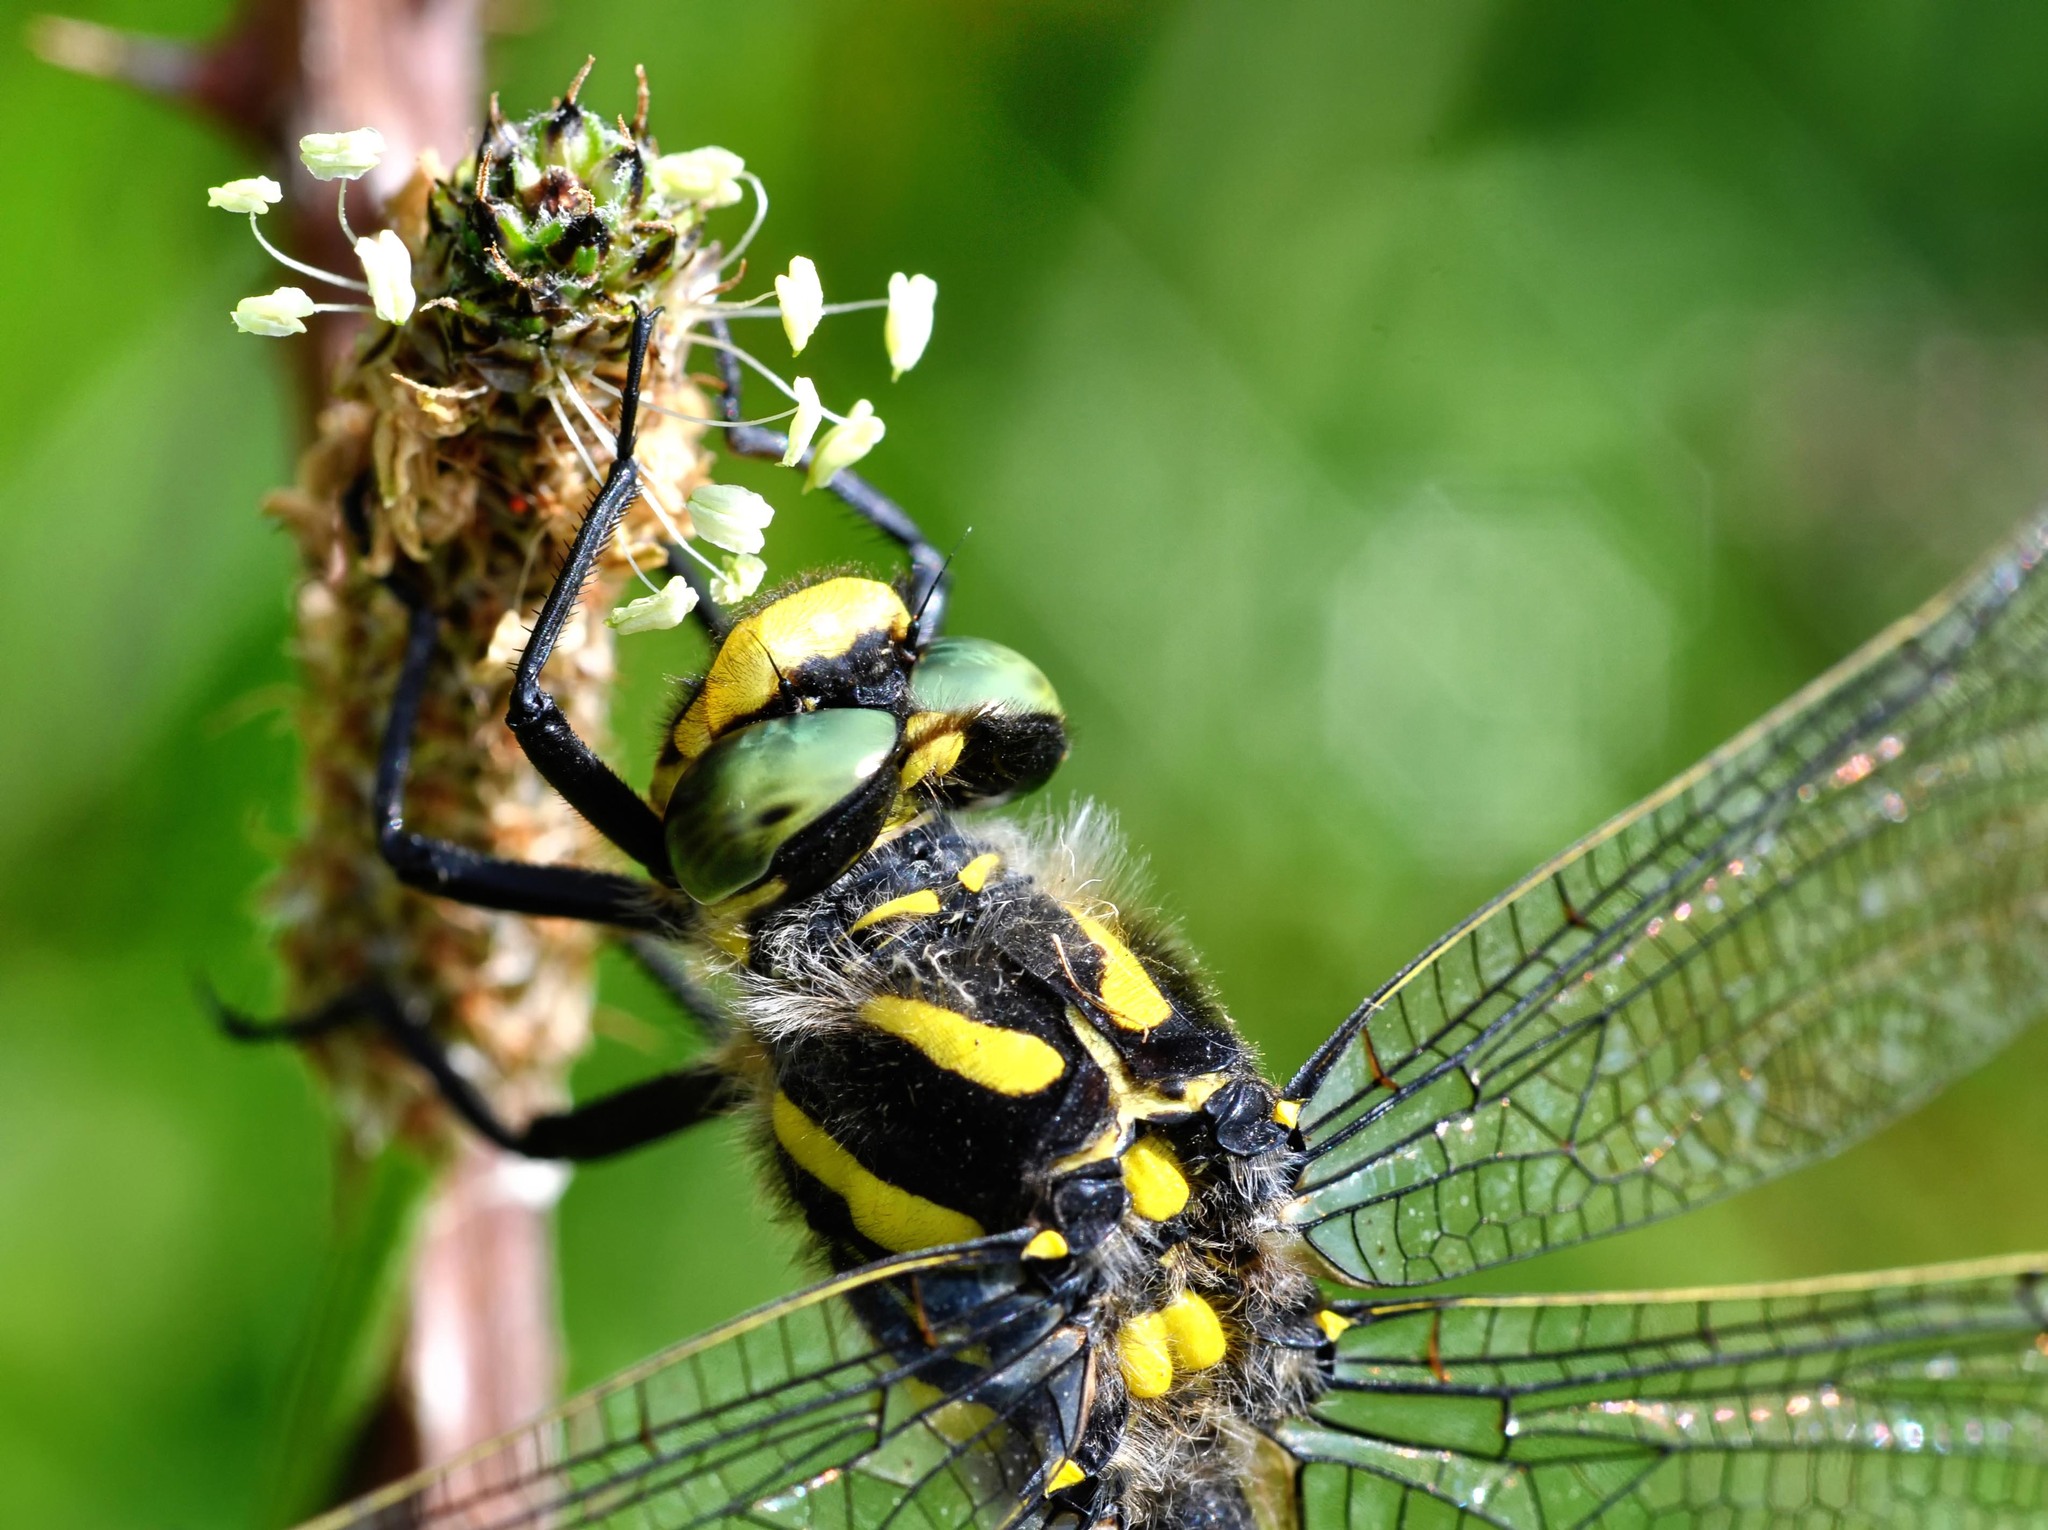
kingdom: Animalia
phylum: Arthropoda
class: Insecta
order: Odonata
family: Cordulegastridae
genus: Cordulegaster
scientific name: Cordulegaster boltonii
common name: Golden-ringed dragonfly
